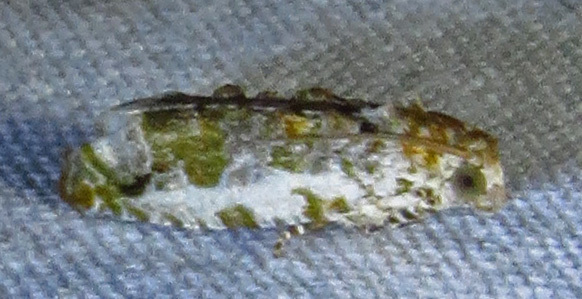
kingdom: Animalia
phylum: Arthropoda
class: Insecta
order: Lepidoptera
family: Tortricidae
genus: Proteoteras
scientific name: Proteoteras naracana
